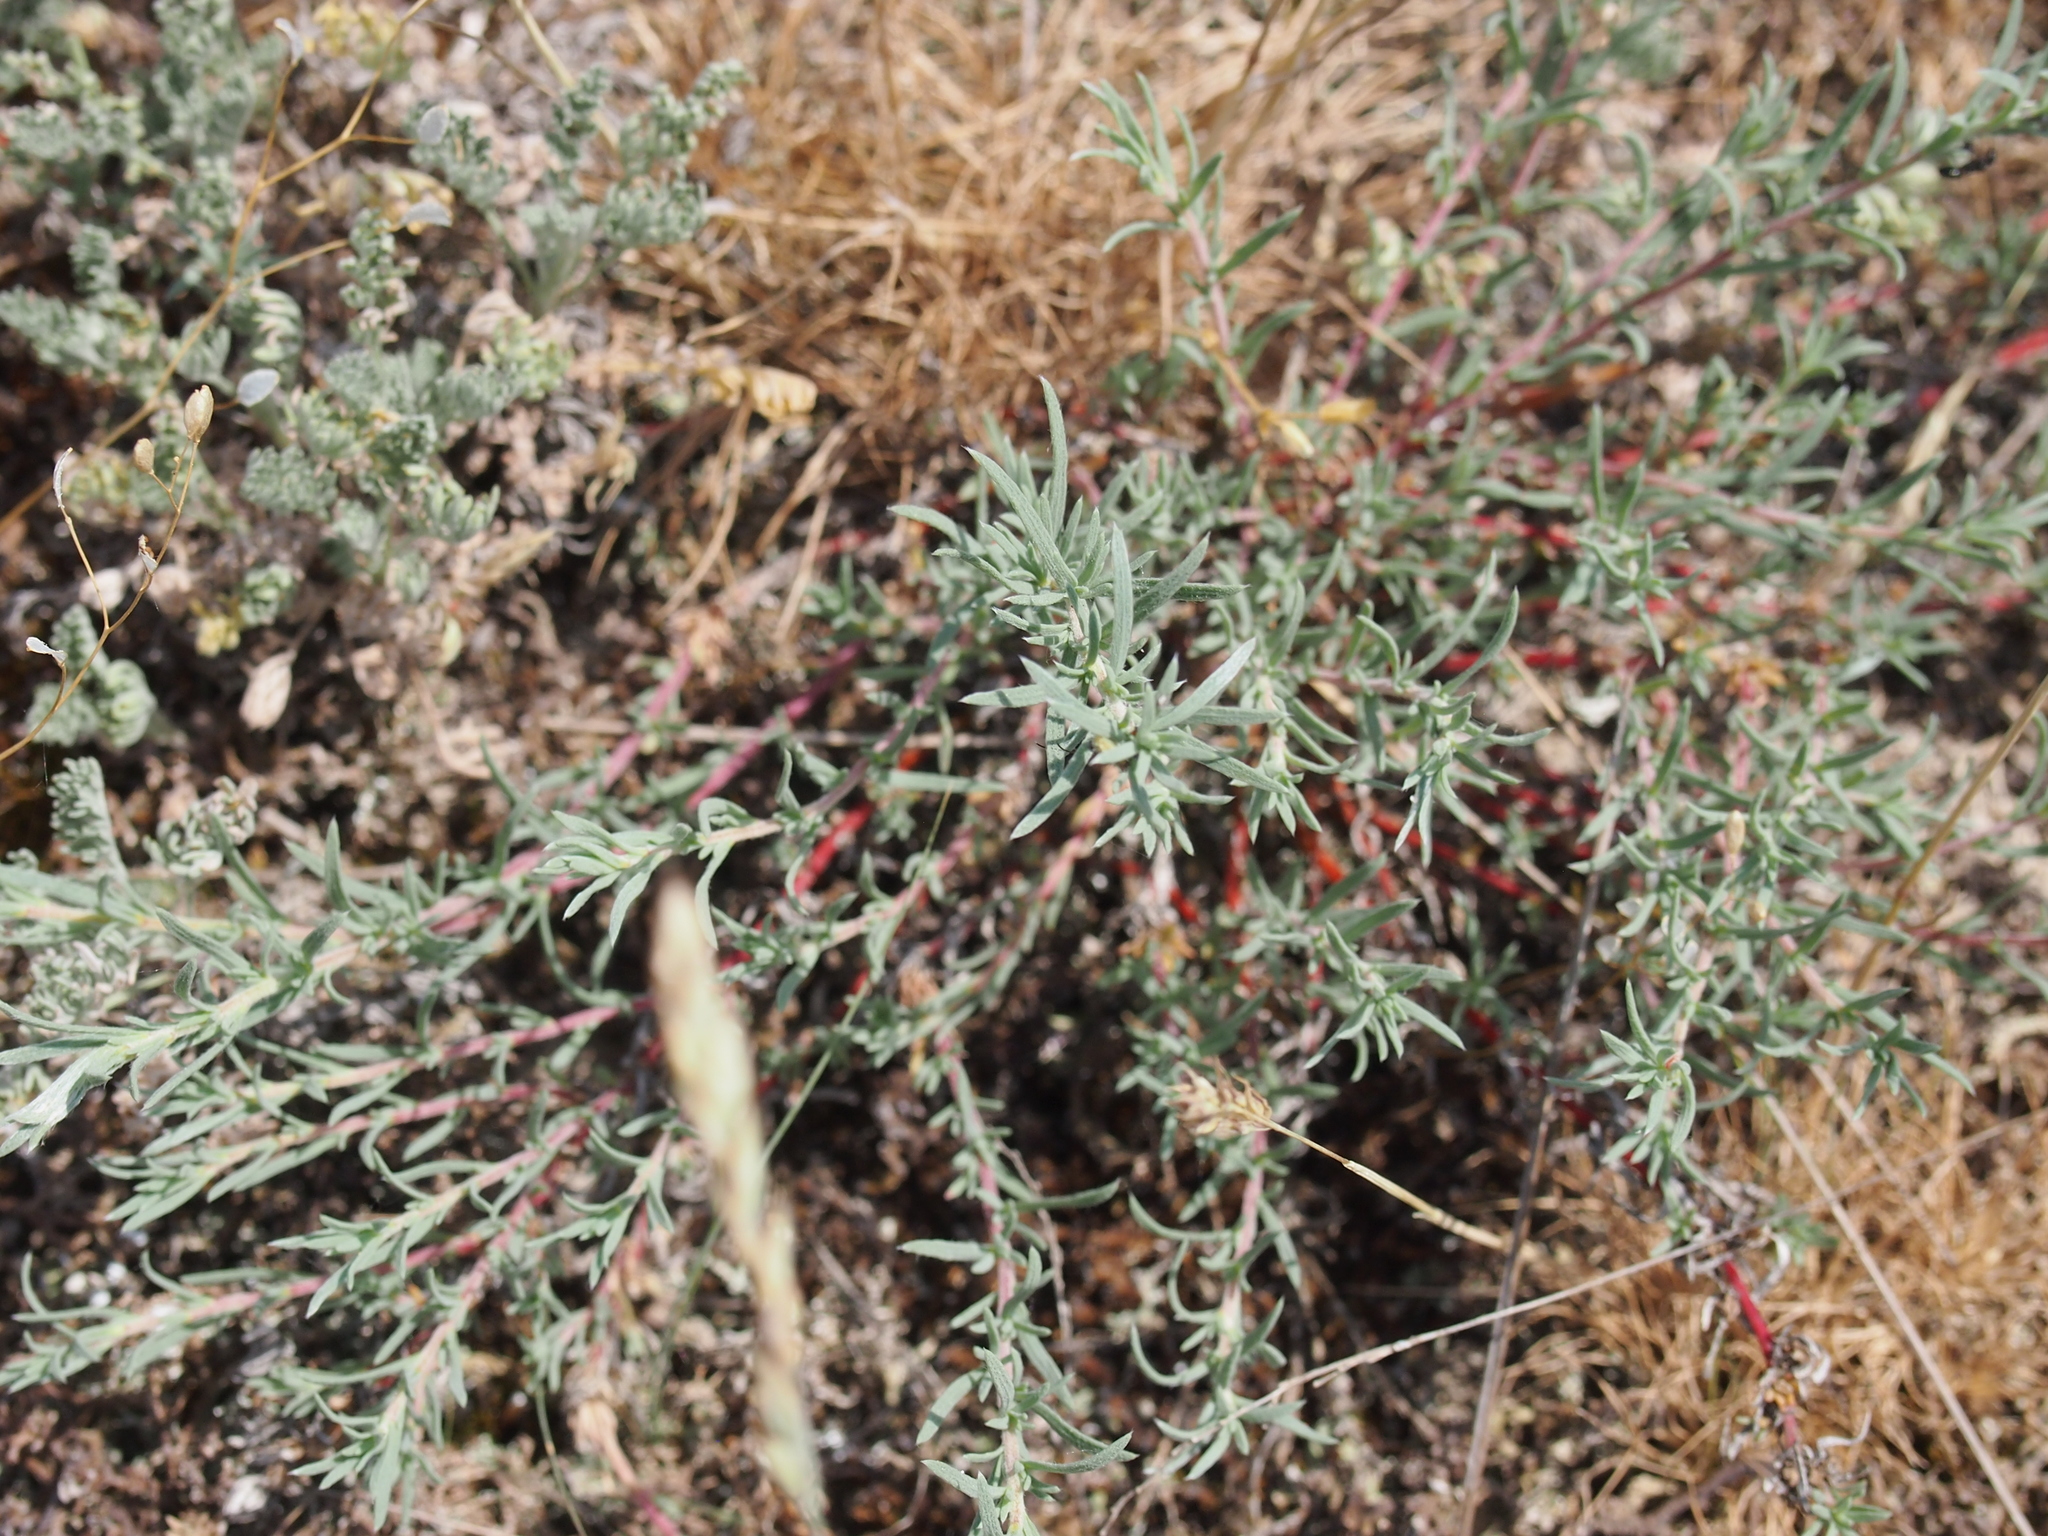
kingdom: Plantae
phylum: Tracheophyta
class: Magnoliopsida
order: Caryophyllales
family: Amaranthaceae
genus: Camphorosma
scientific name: Camphorosma annua
